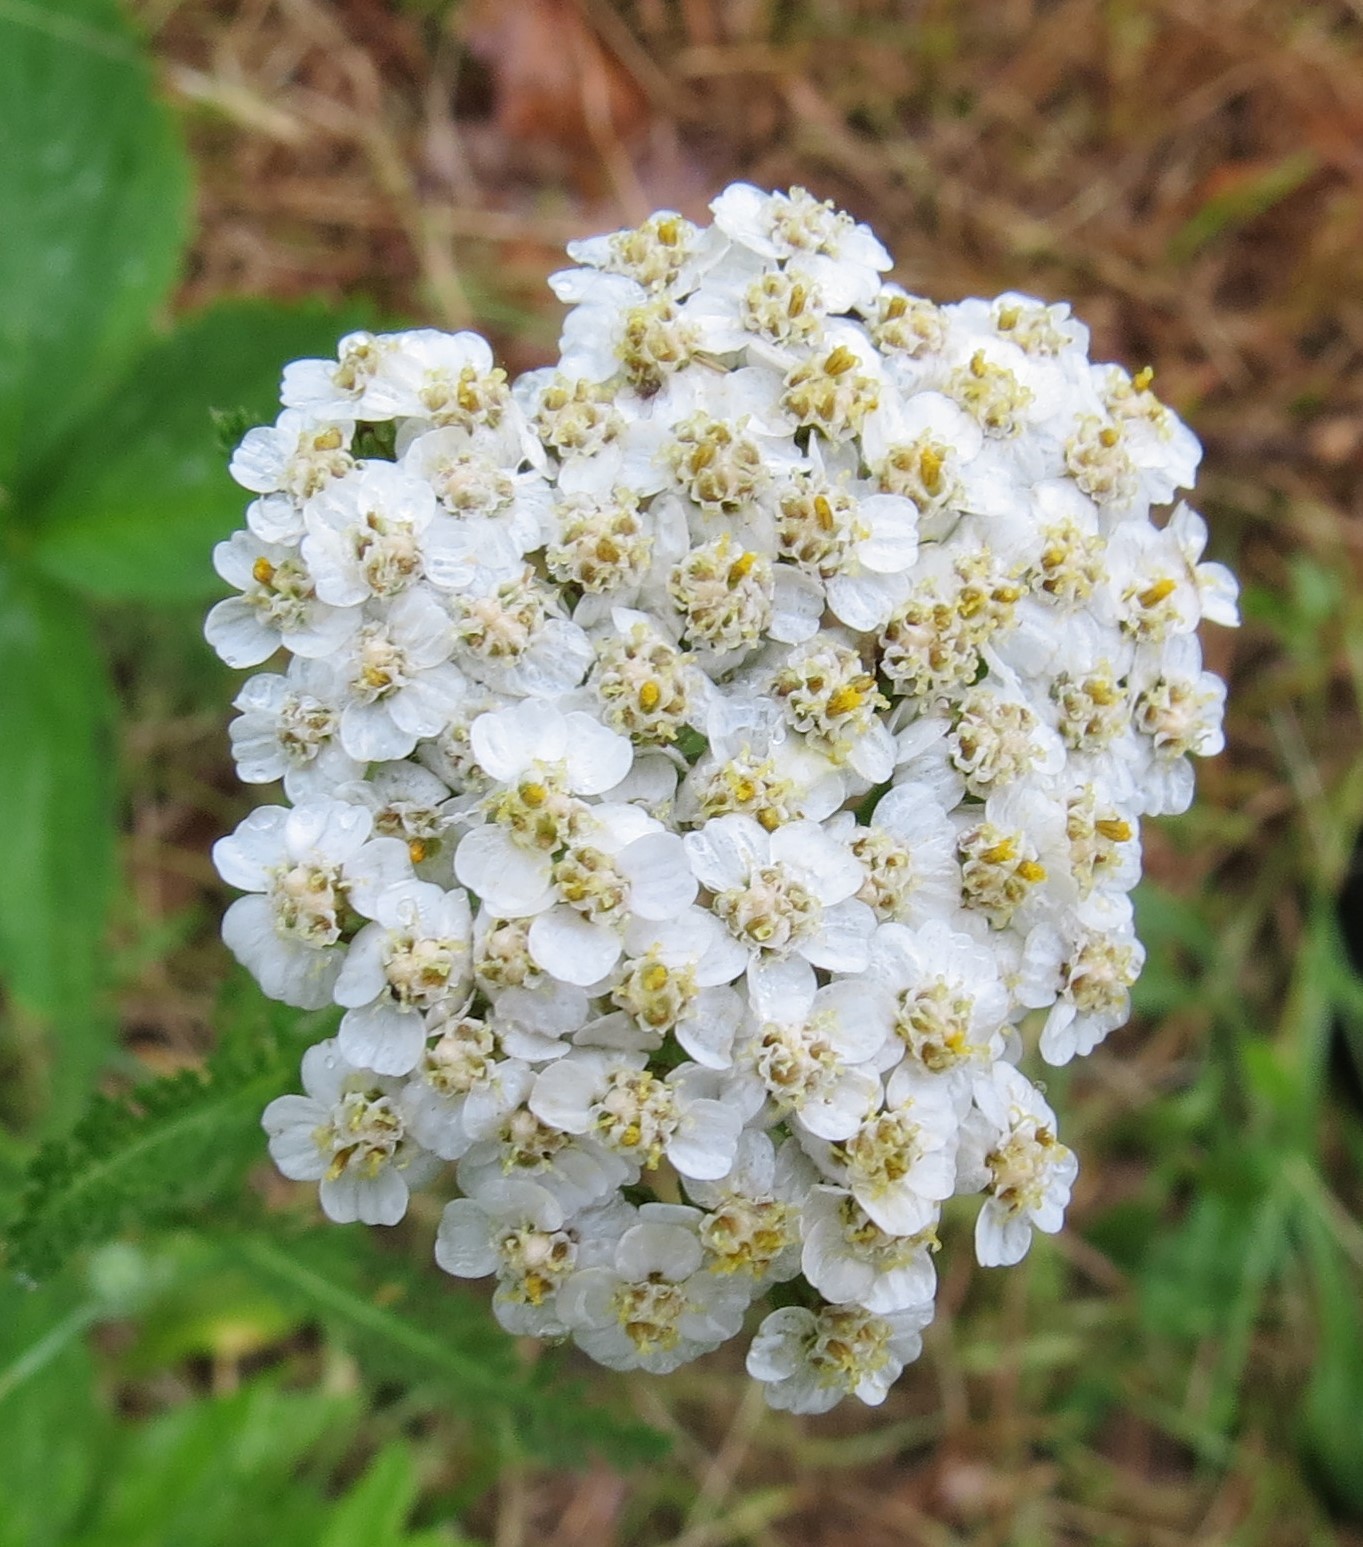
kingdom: Plantae
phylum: Tracheophyta
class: Magnoliopsida
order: Asterales
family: Asteraceae
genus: Achillea
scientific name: Achillea millefolium
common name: Yarrow
